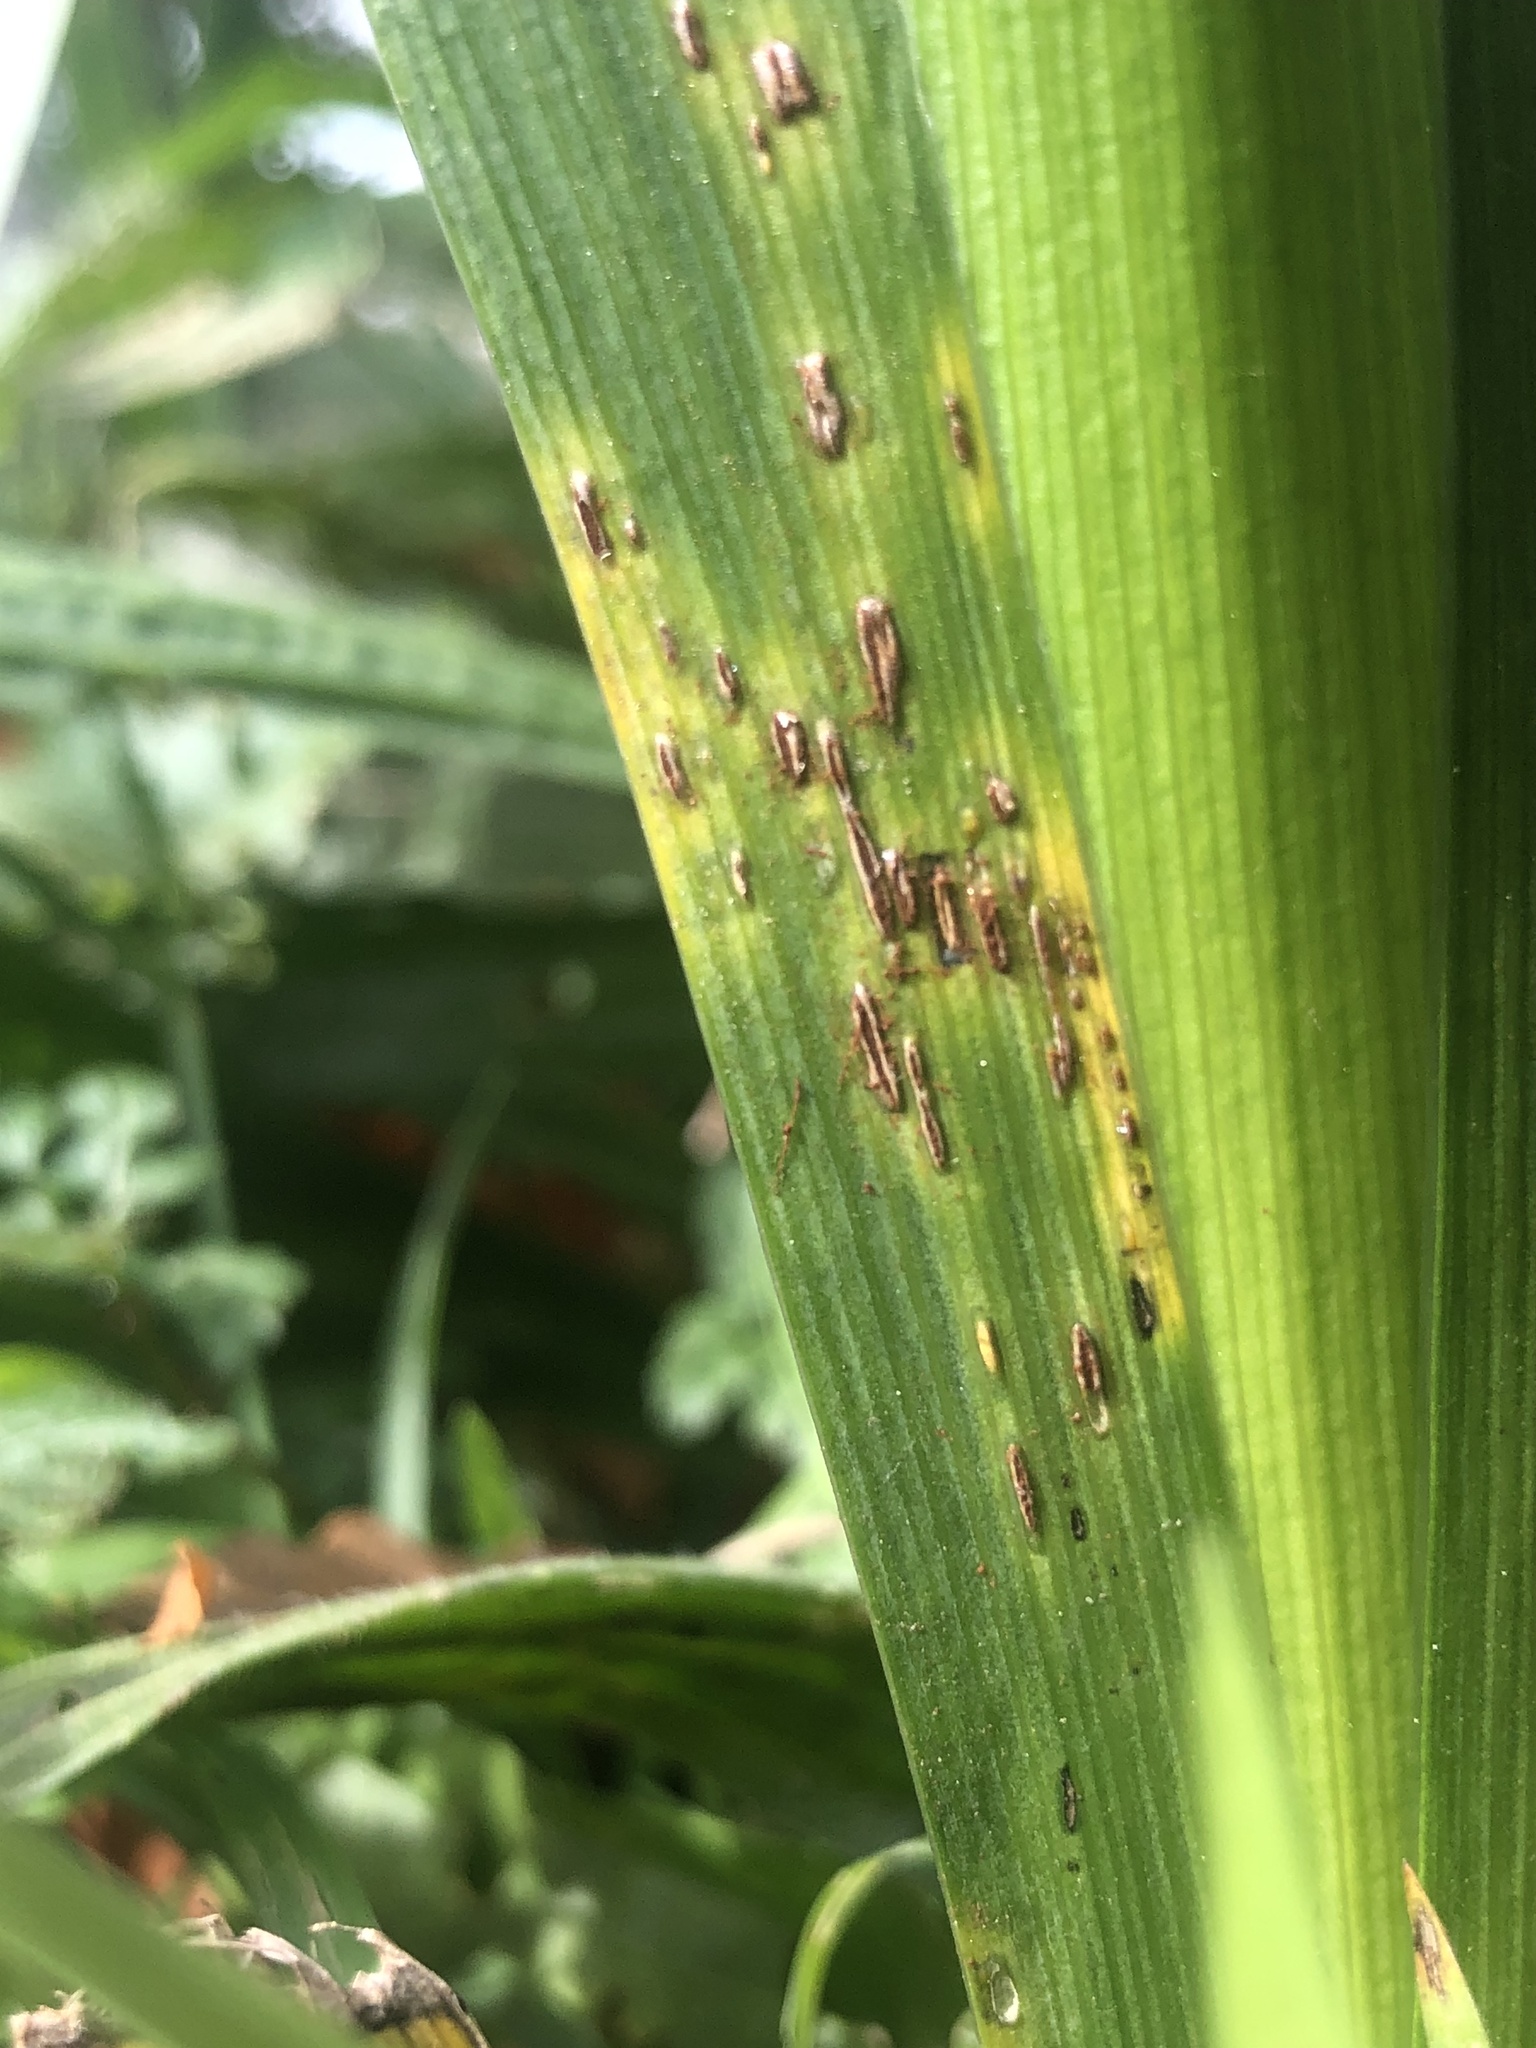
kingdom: Fungi
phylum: Basidiomycota
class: Pucciniomycetes
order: Pucciniales
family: Pucciniaceae
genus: Puccinia
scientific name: Puccinia iridis
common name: Iris rust
